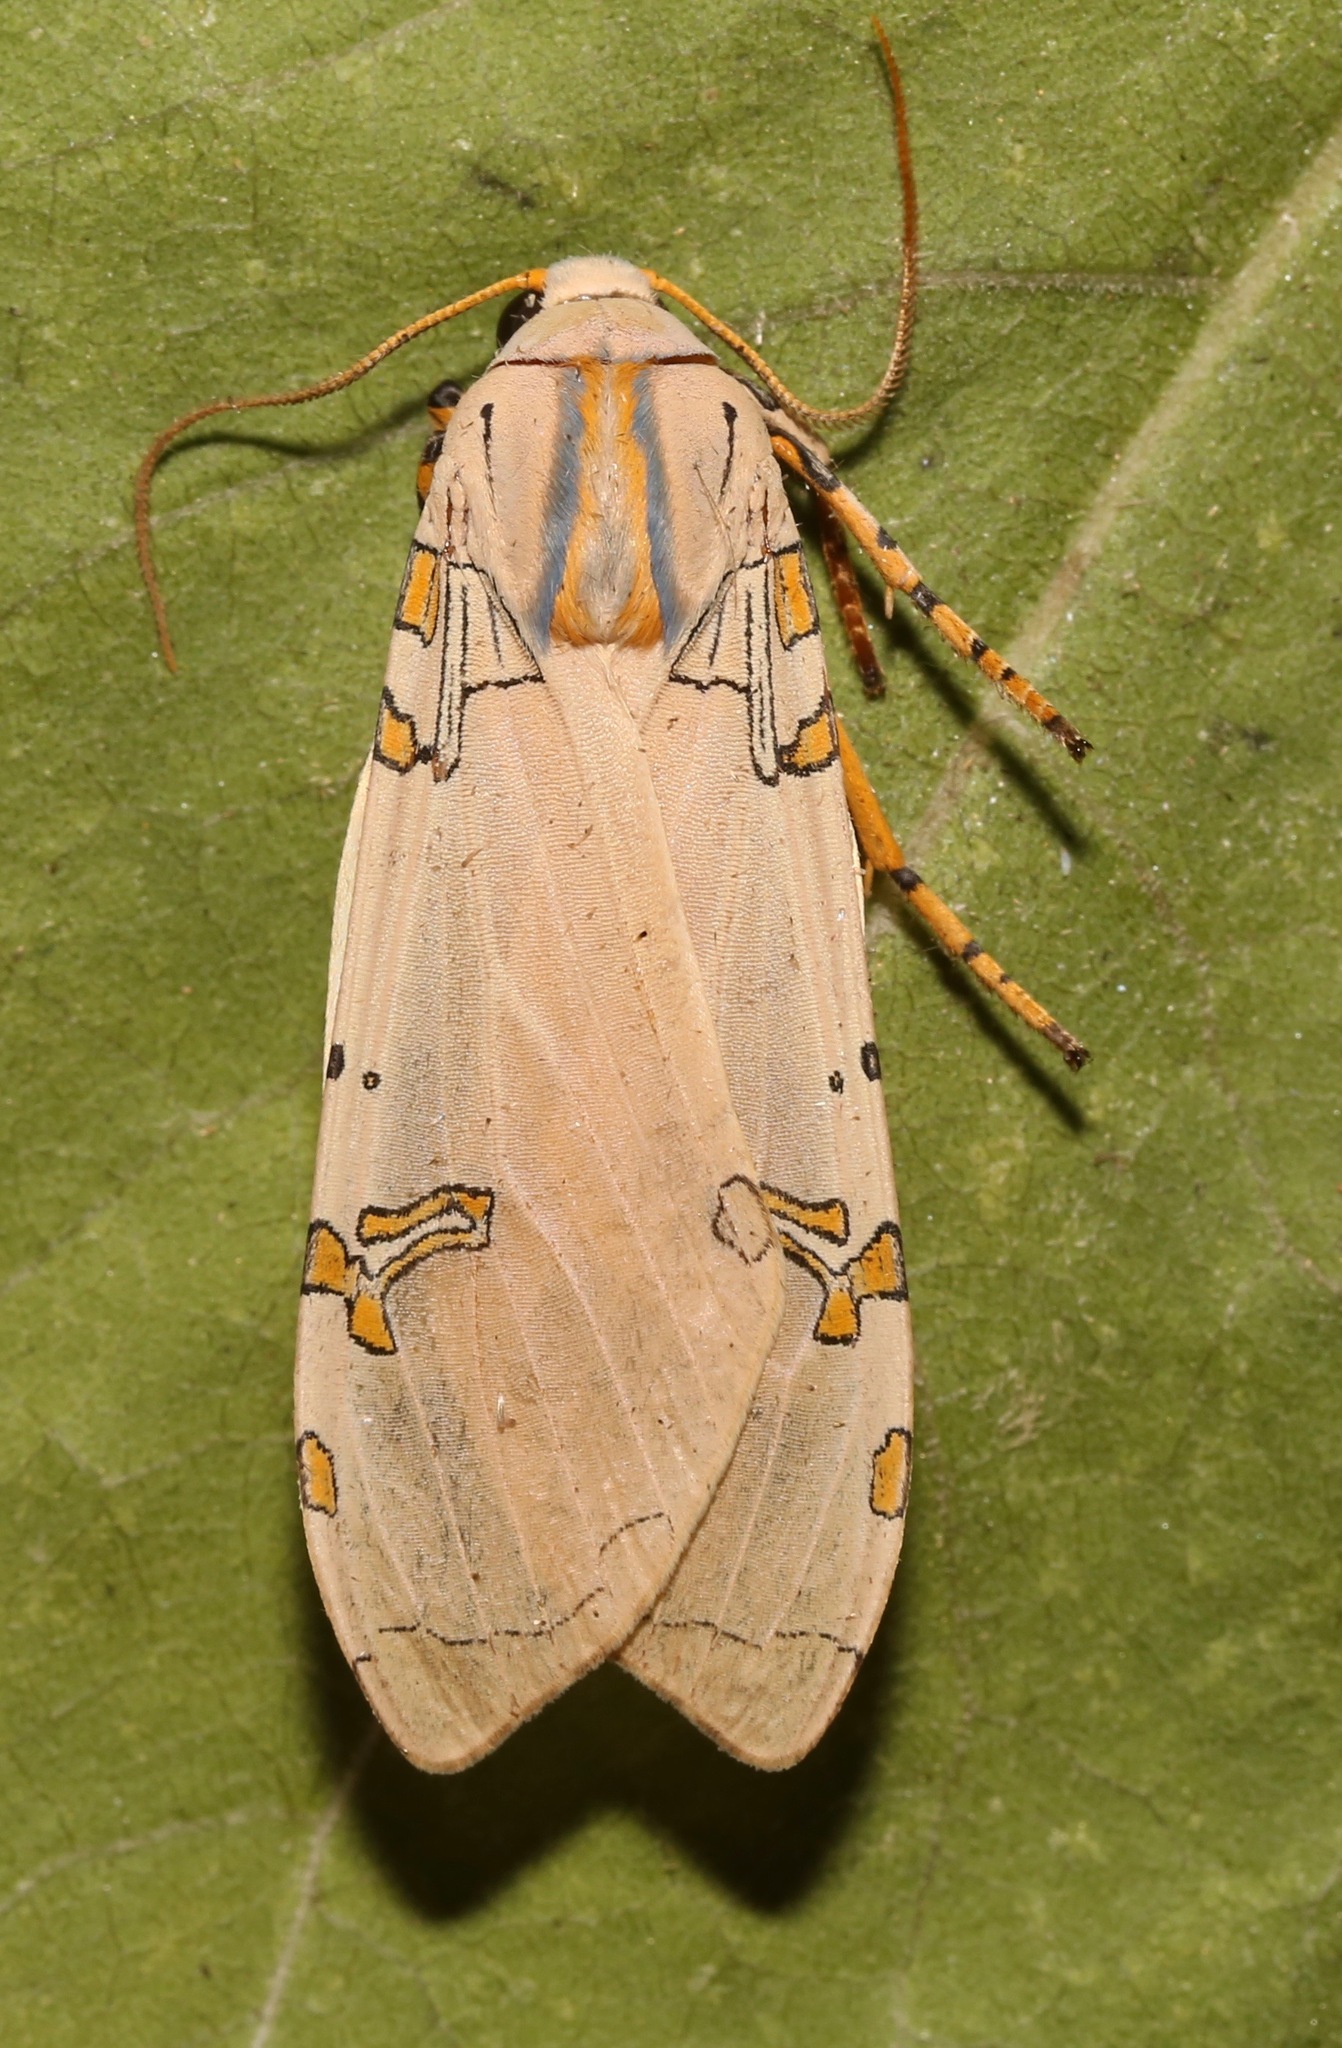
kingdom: Animalia
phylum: Arthropoda
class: Insecta
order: Lepidoptera
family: Erebidae
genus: Halysidota
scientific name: Halysidota davisii
